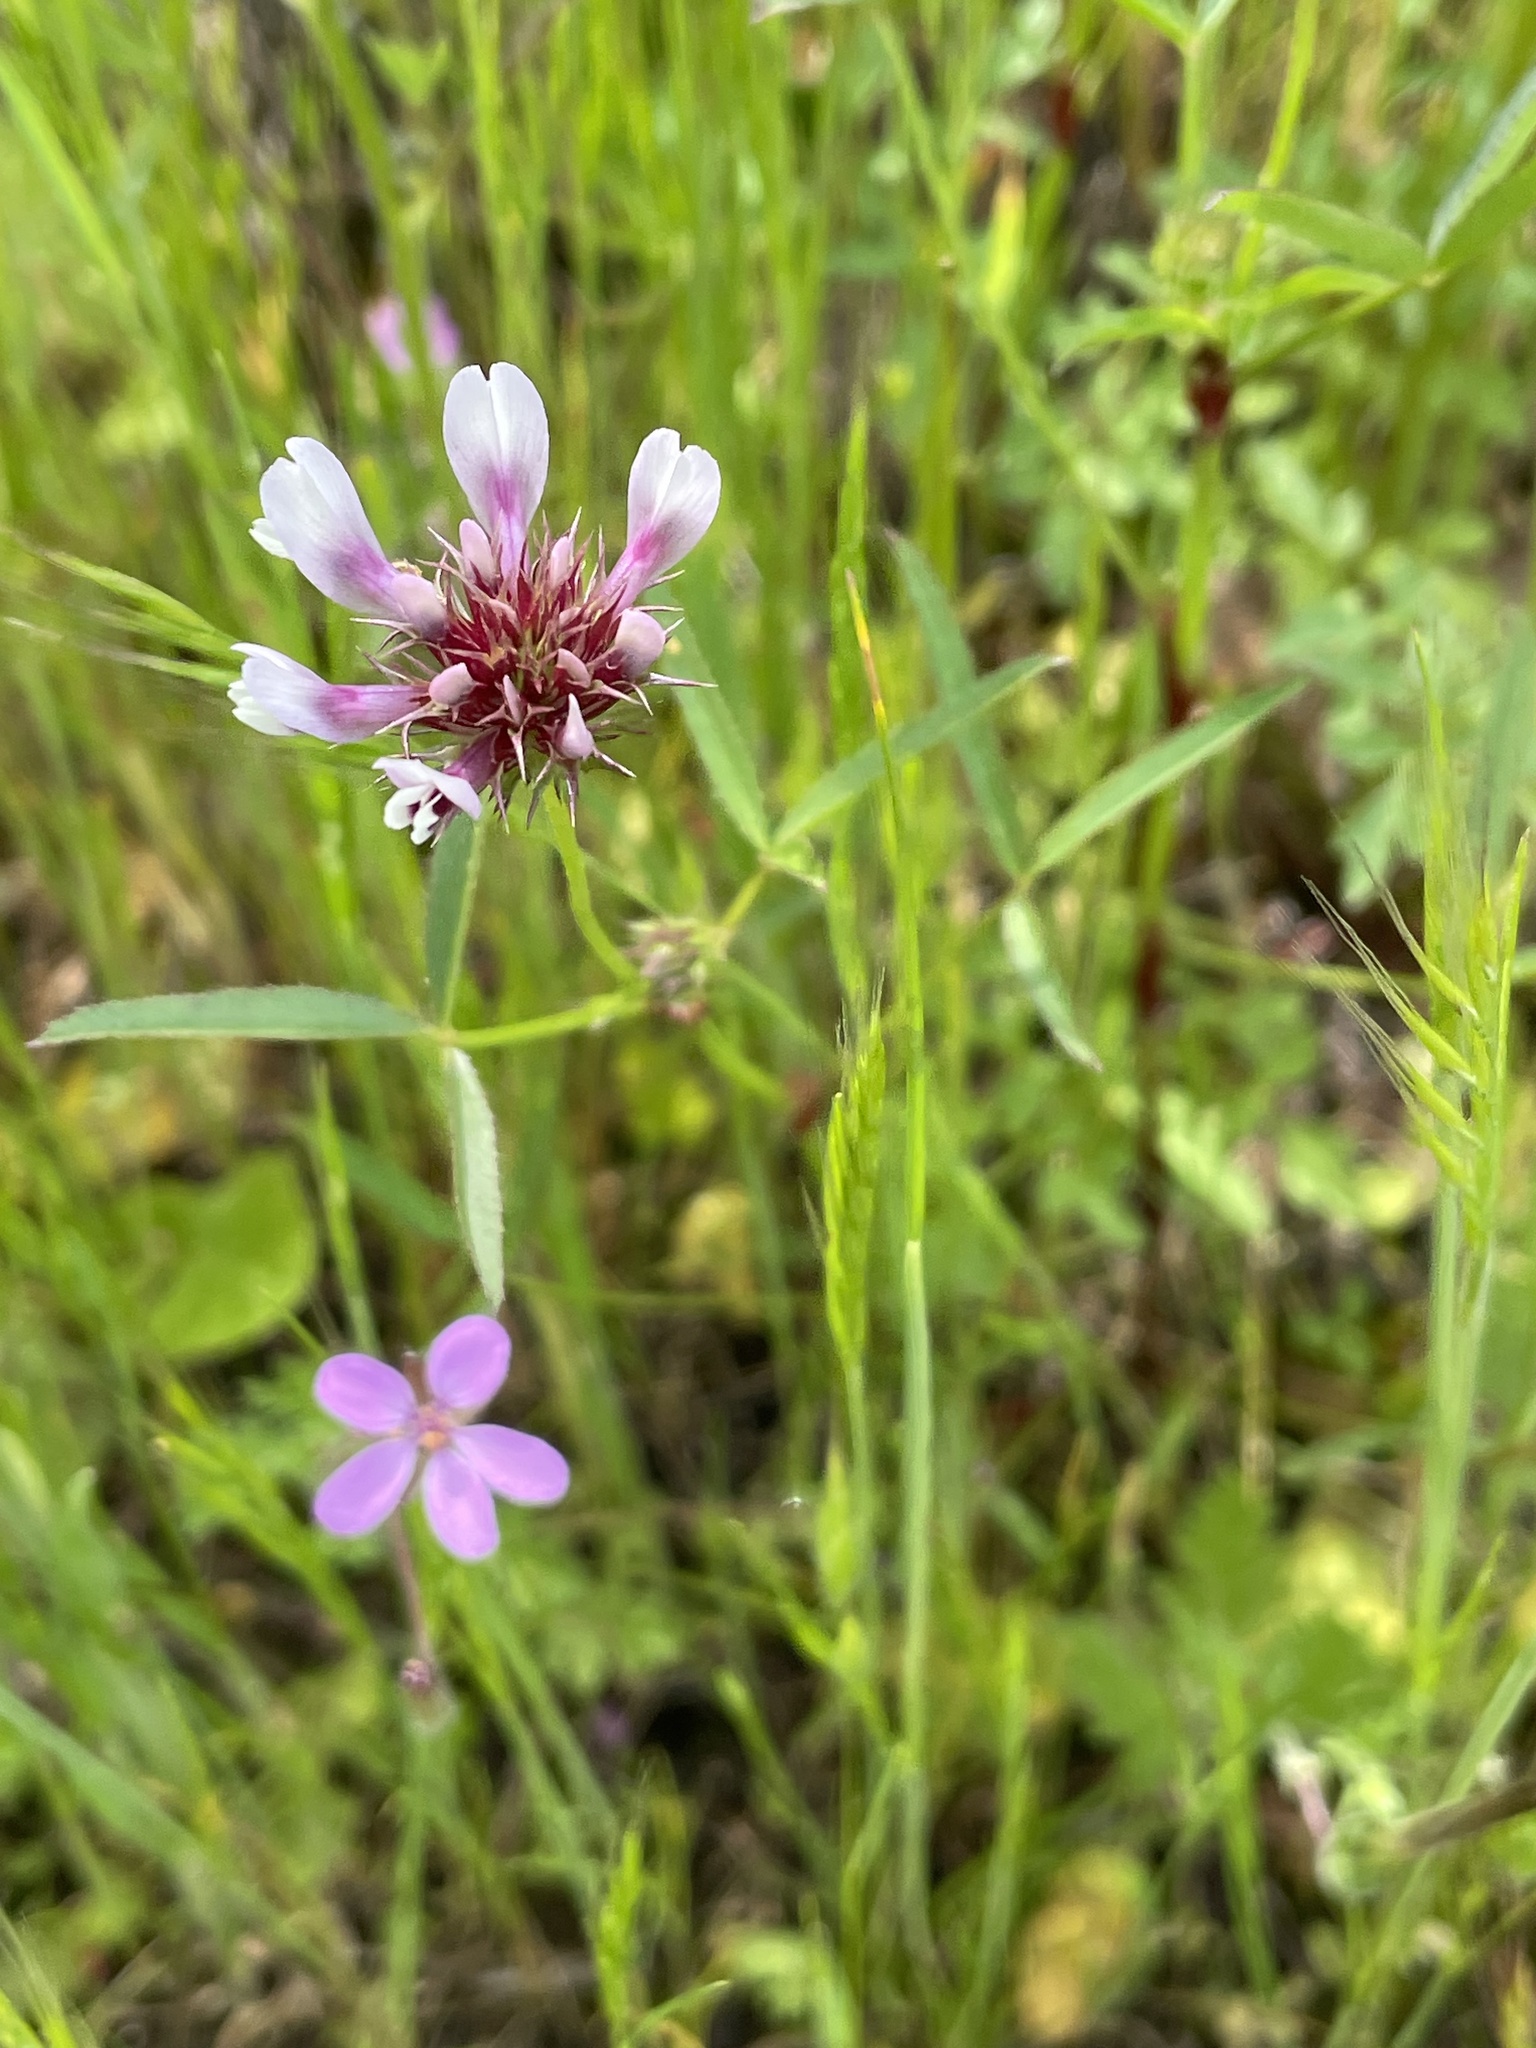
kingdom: Plantae
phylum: Tracheophyta
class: Magnoliopsida
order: Fabales
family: Fabaceae
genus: Trifolium
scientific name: Trifolium willdenovii
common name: Tomcat clover
